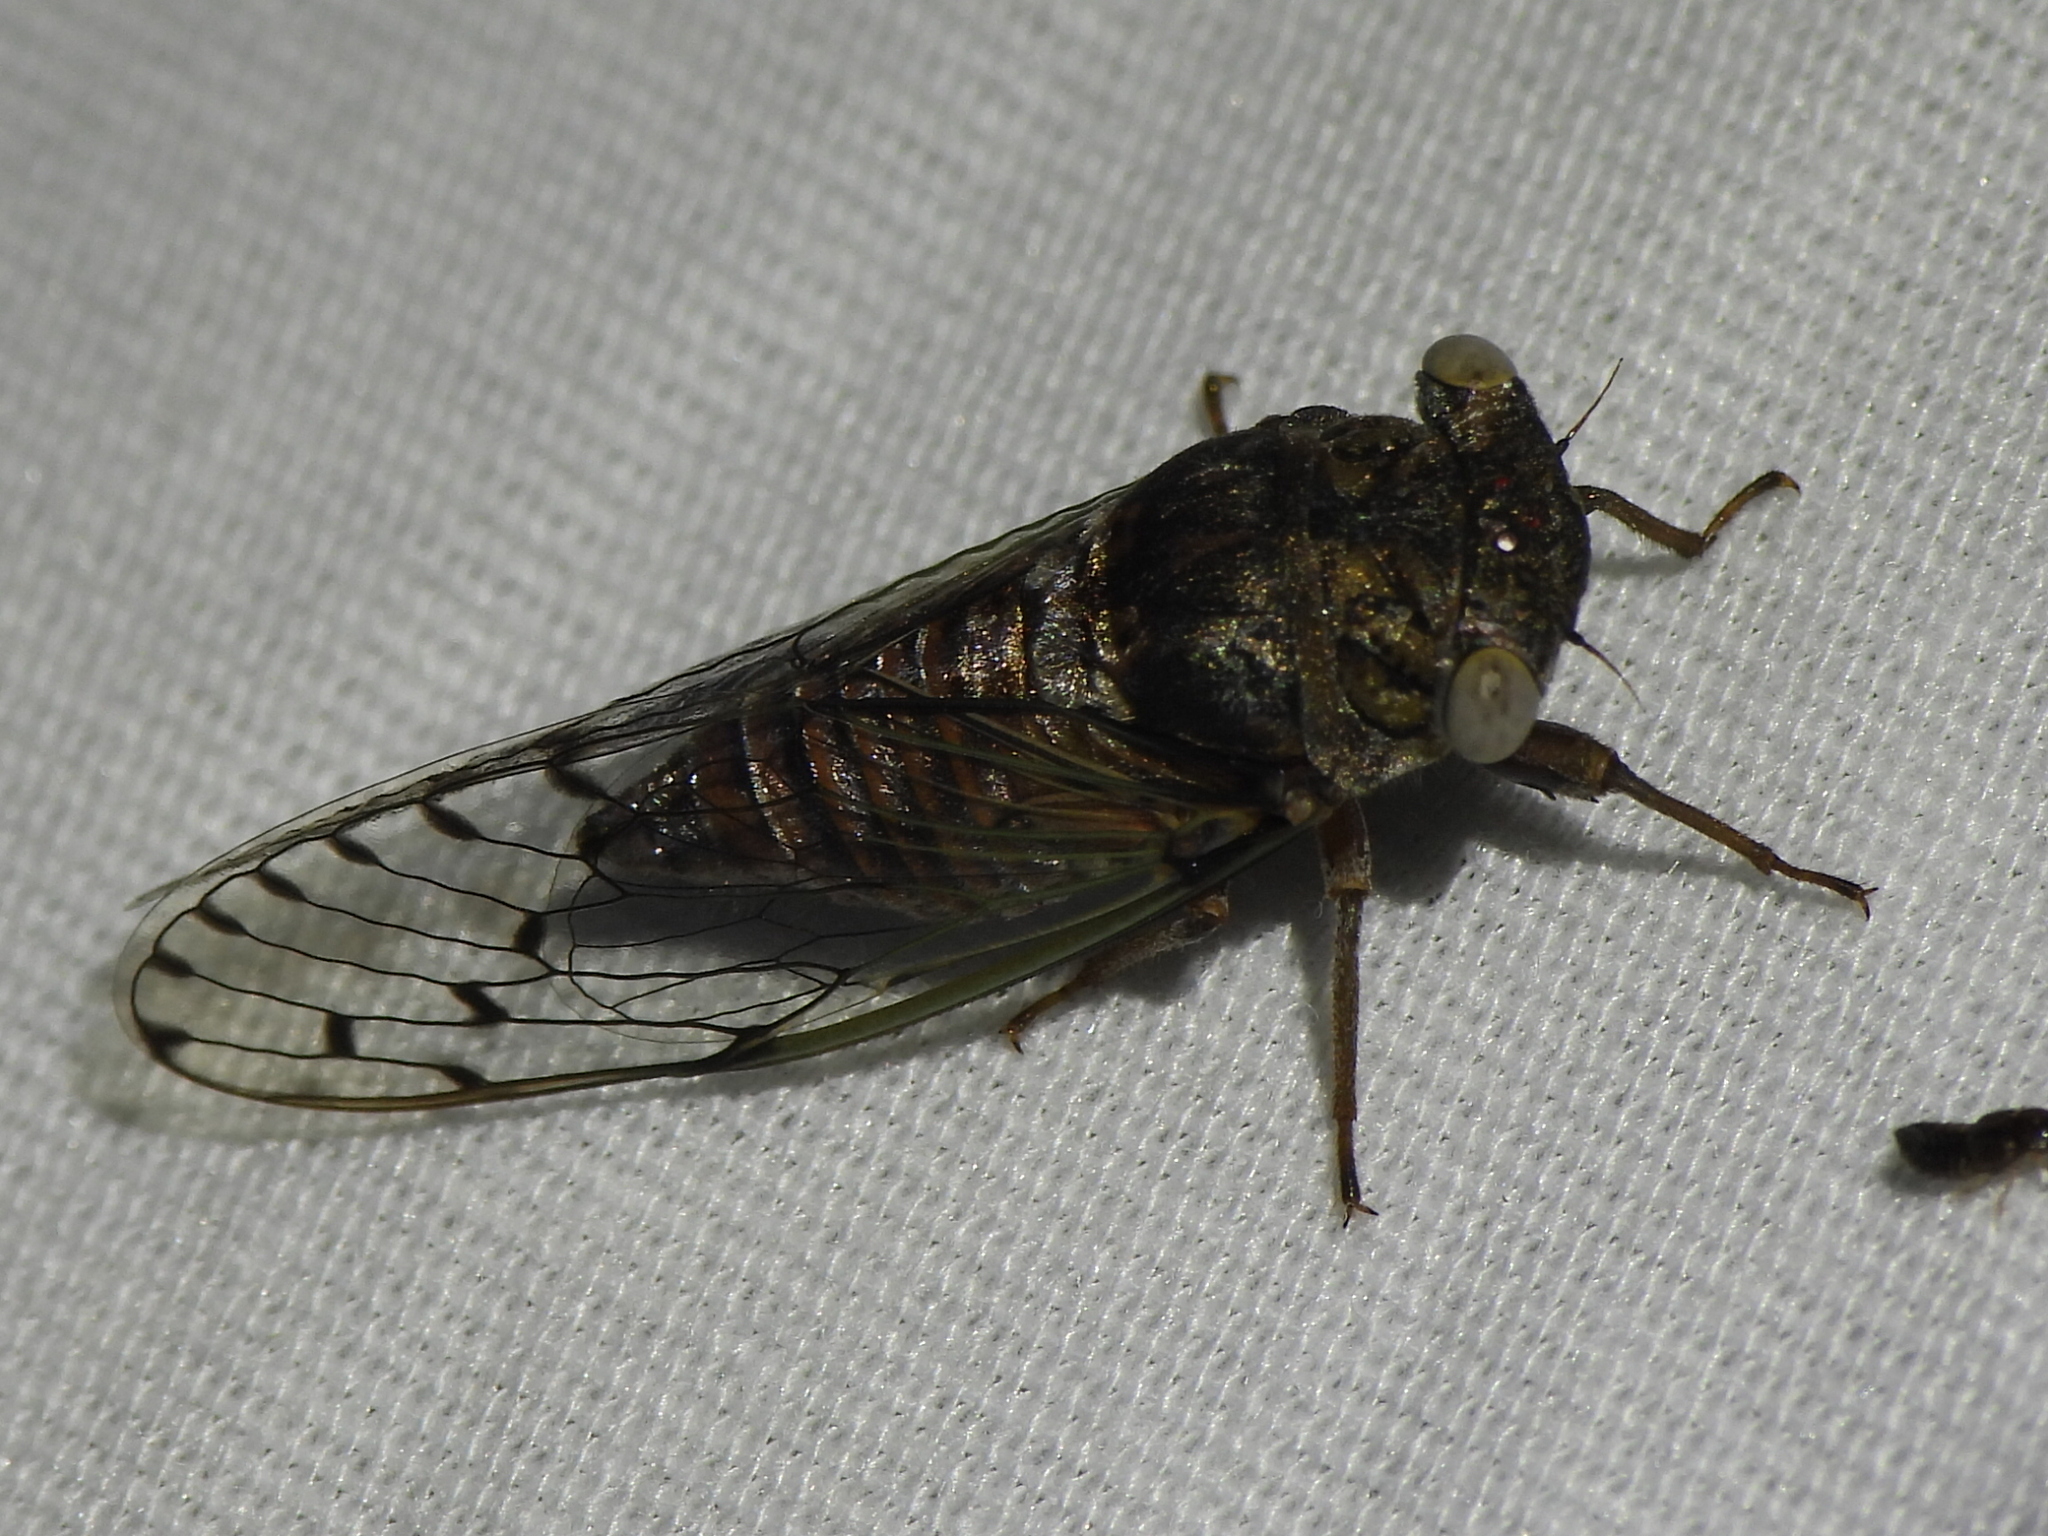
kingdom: Animalia
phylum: Arthropoda
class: Insecta
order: Hemiptera
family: Cicadidae
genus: Pacarina
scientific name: Pacarina puella
